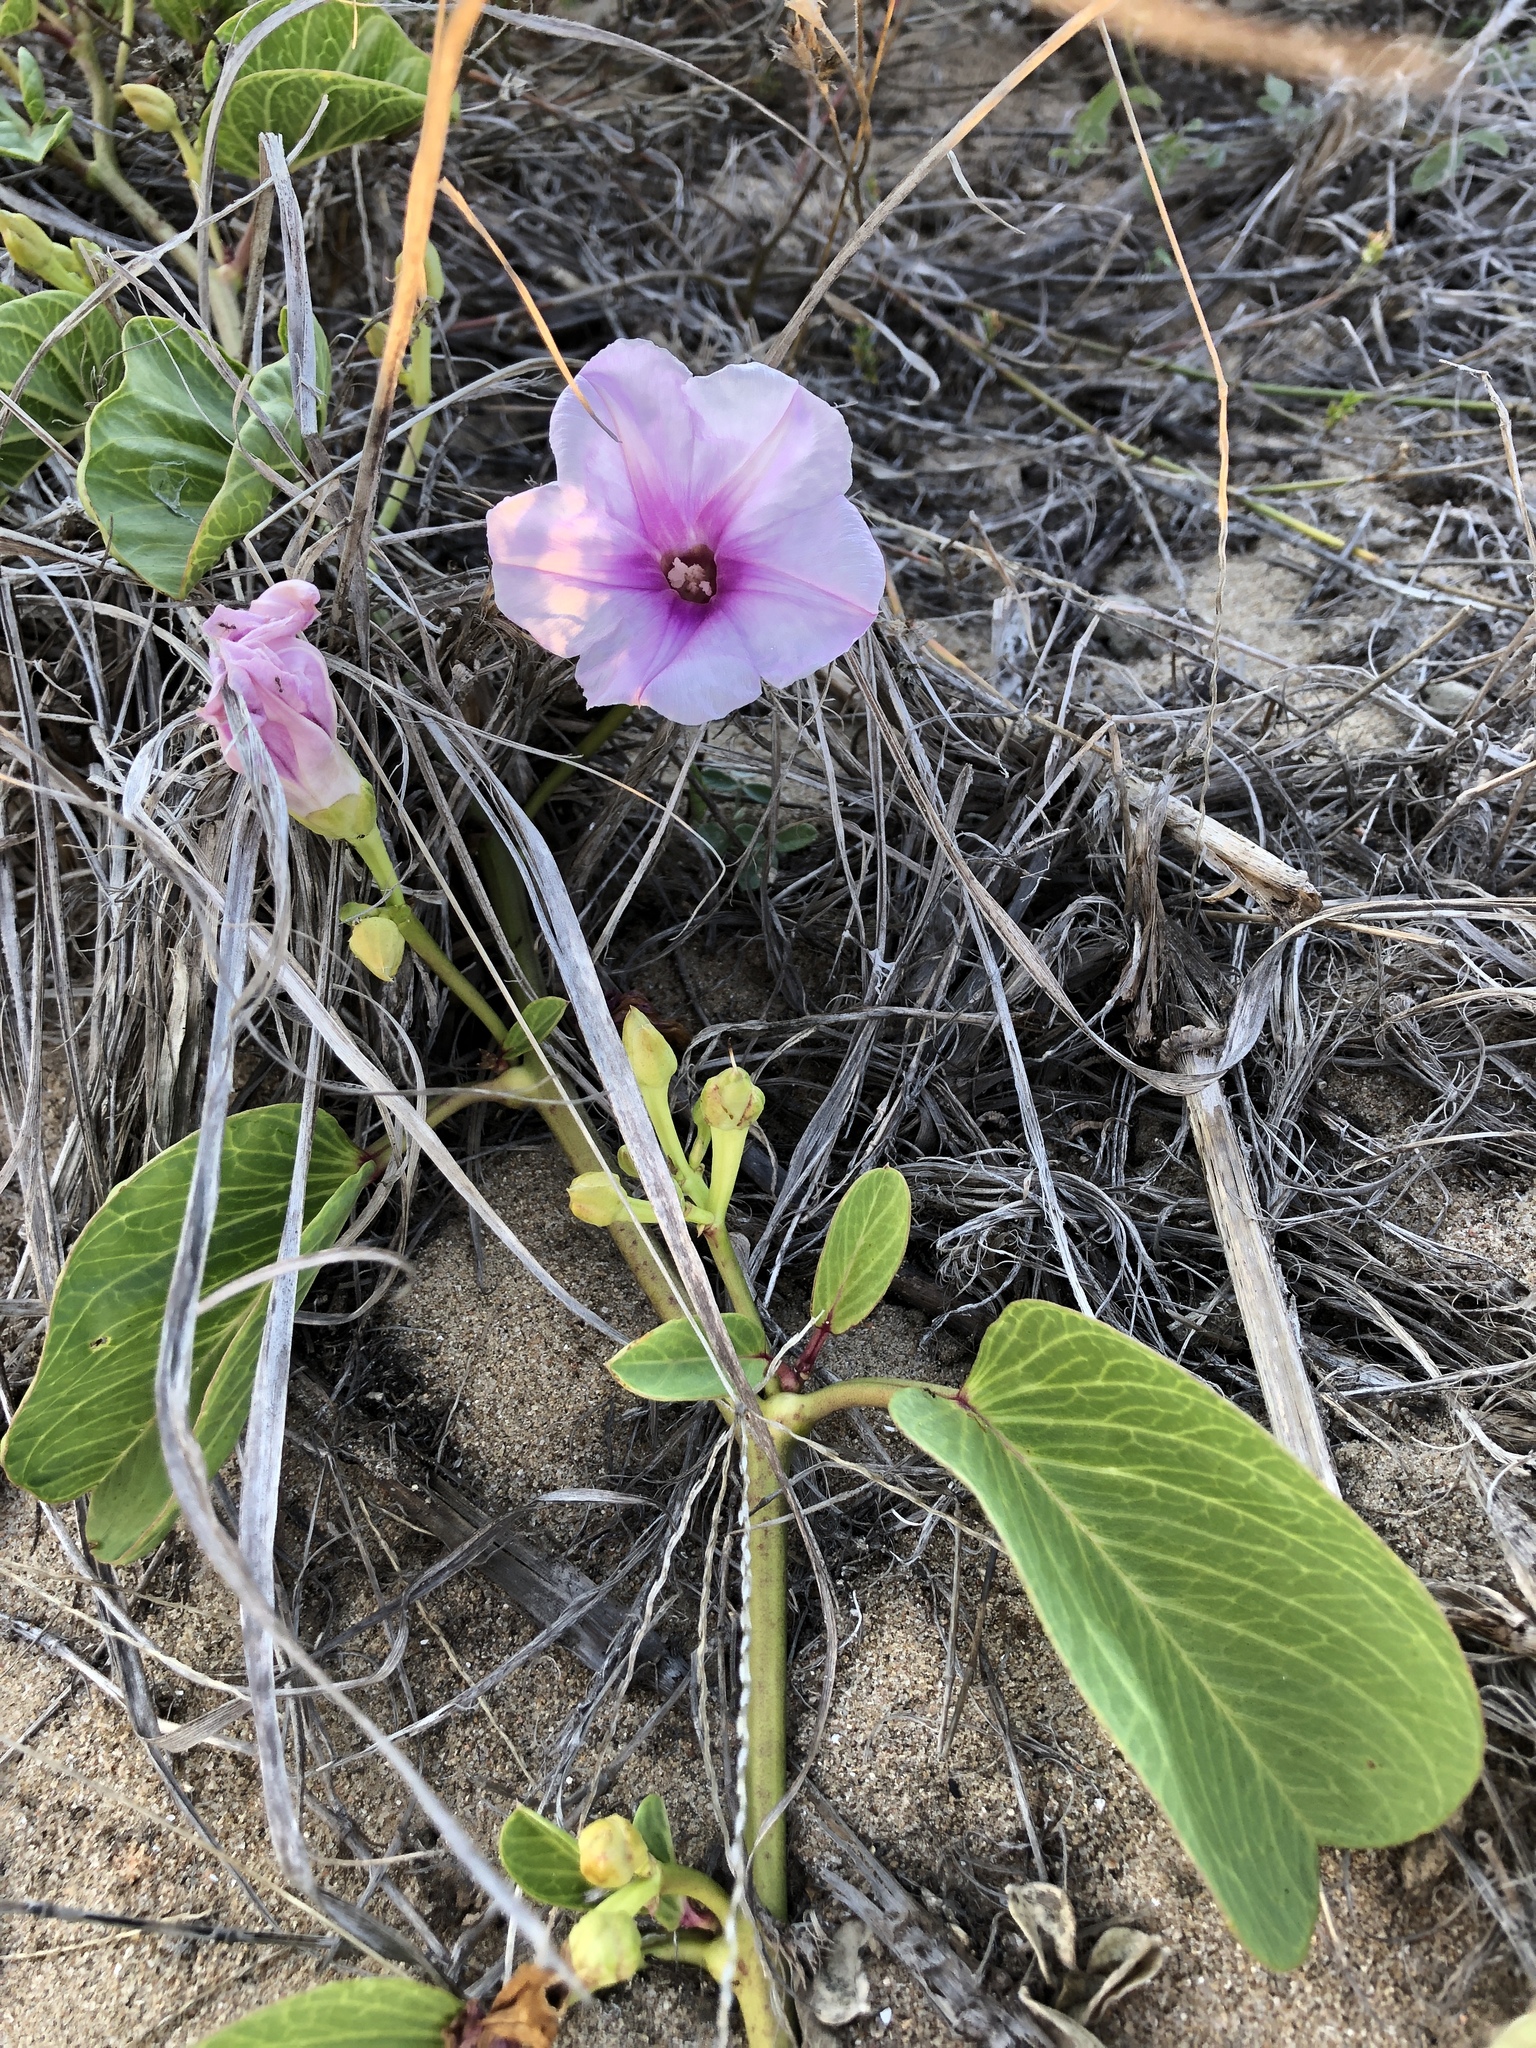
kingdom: Plantae
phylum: Tracheophyta
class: Magnoliopsida
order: Solanales
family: Convolvulaceae
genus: Ipomoea
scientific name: Ipomoea pes-caprae
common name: Beach morning glory
